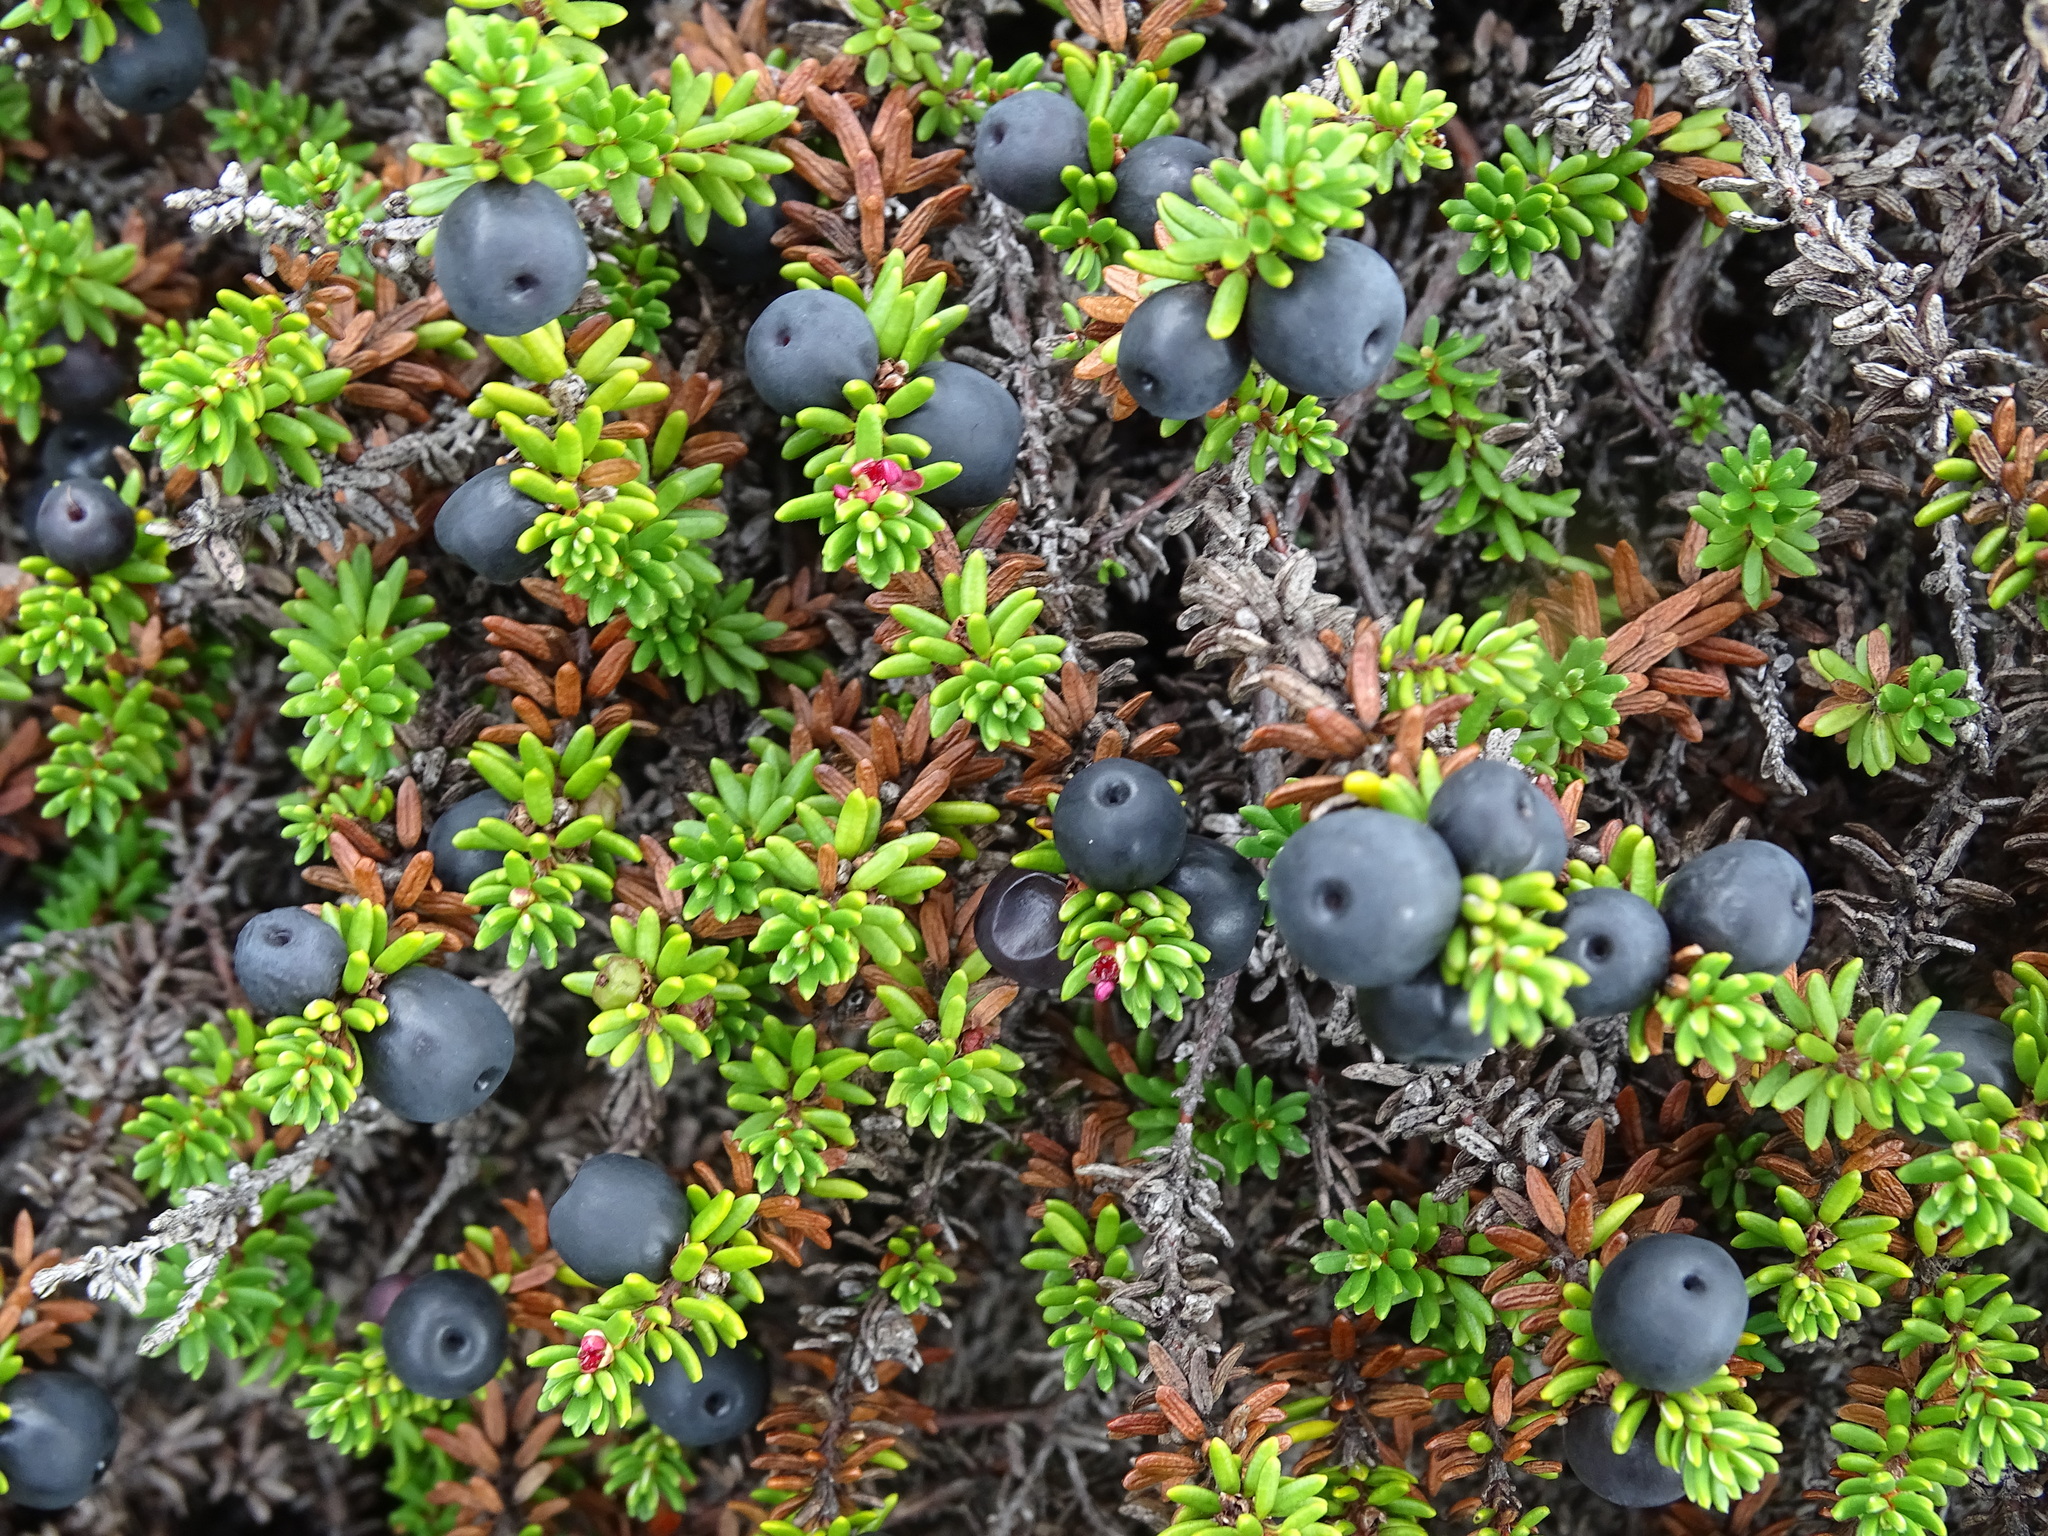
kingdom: Plantae
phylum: Tracheophyta
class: Magnoliopsida
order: Ericales
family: Ericaceae
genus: Empetrum
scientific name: Empetrum nigrum
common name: Black crowberry
